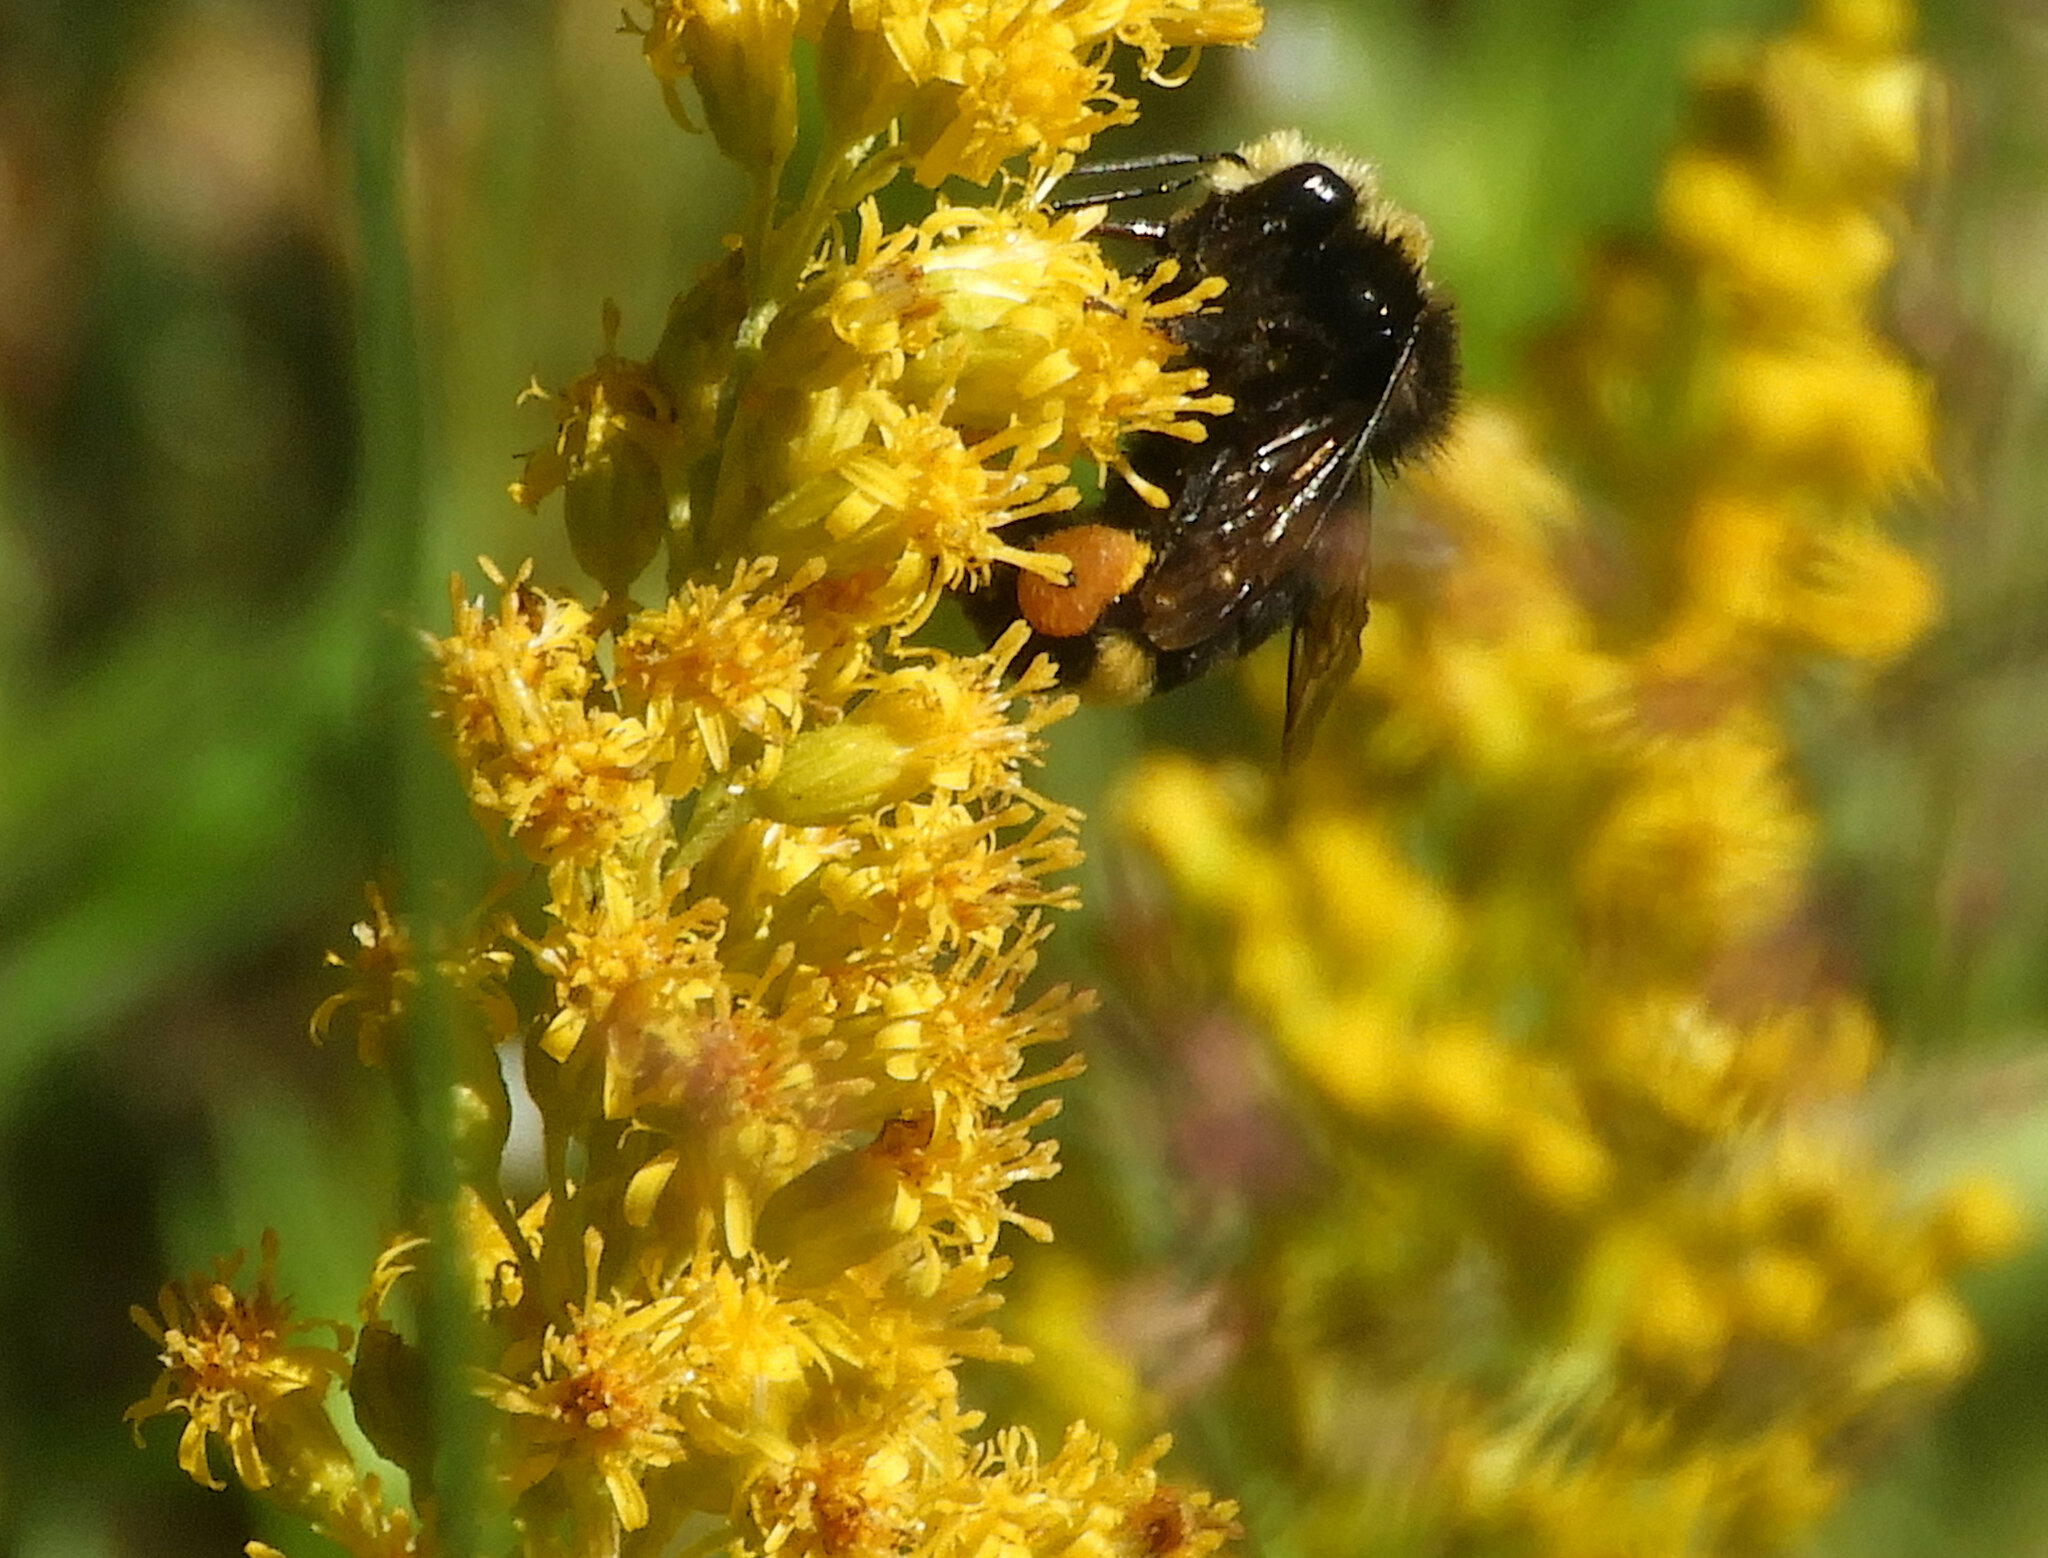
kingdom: Animalia
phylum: Arthropoda
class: Insecta
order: Hymenoptera
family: Apidae
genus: Bombus
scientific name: Bombus vosnesenskii
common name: Vosnesensky bumble bee
